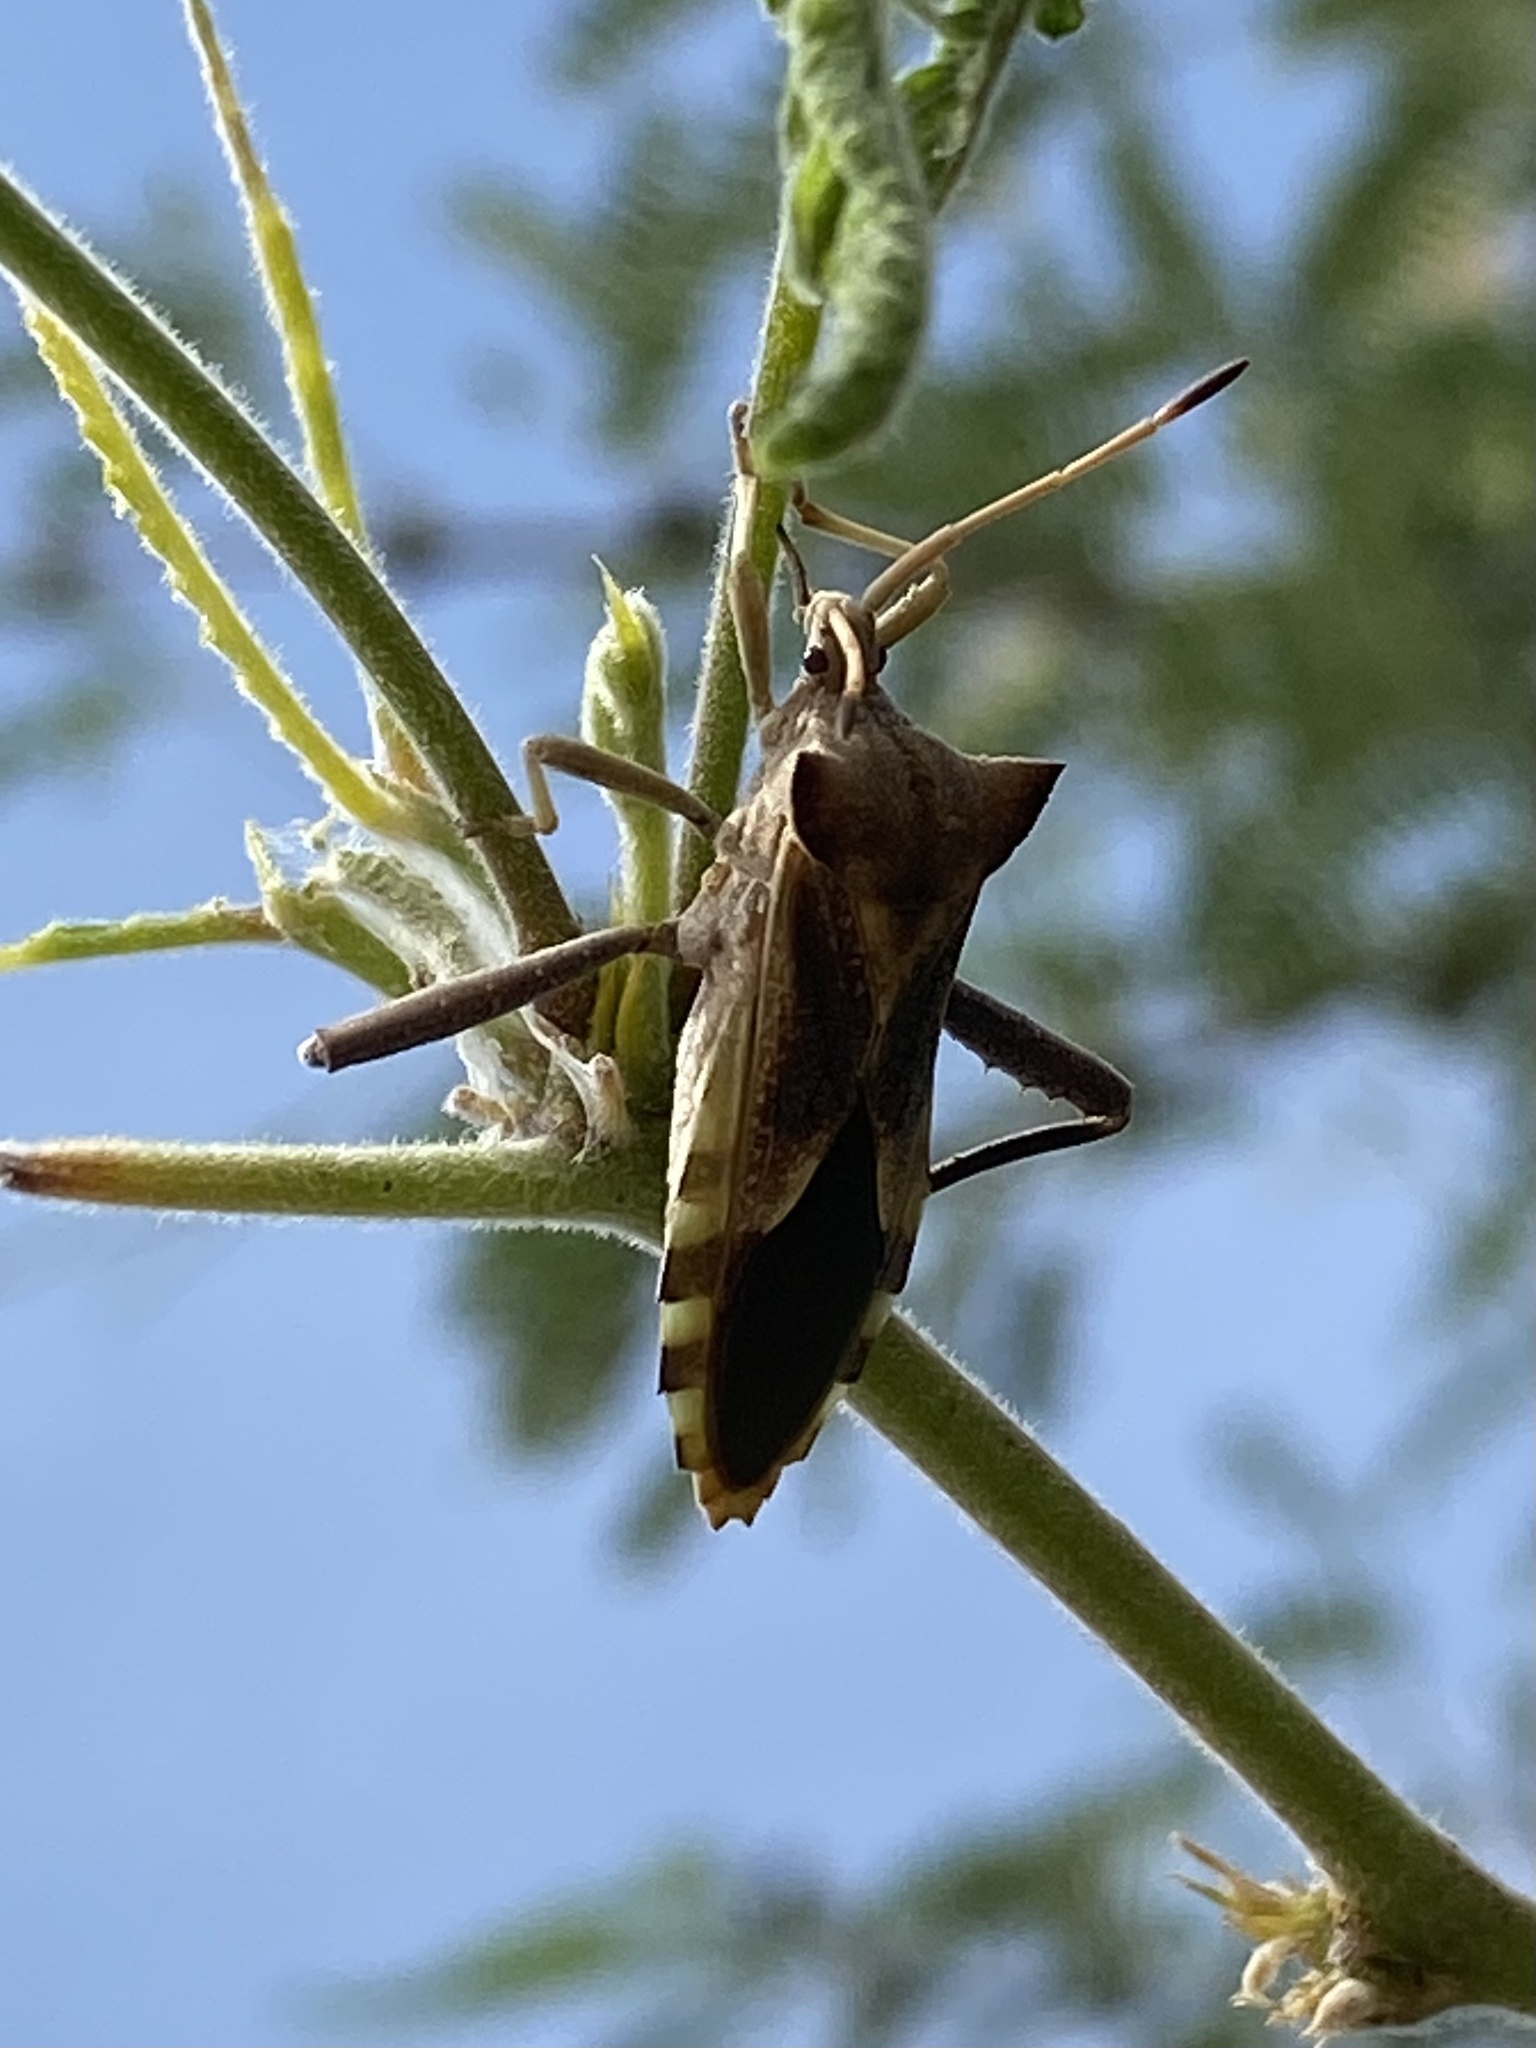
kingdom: Animalia
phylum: Arthropoda
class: Insecta
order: Hemiptera
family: Coreidae
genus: Mozena
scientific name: Mozena arizonensis
